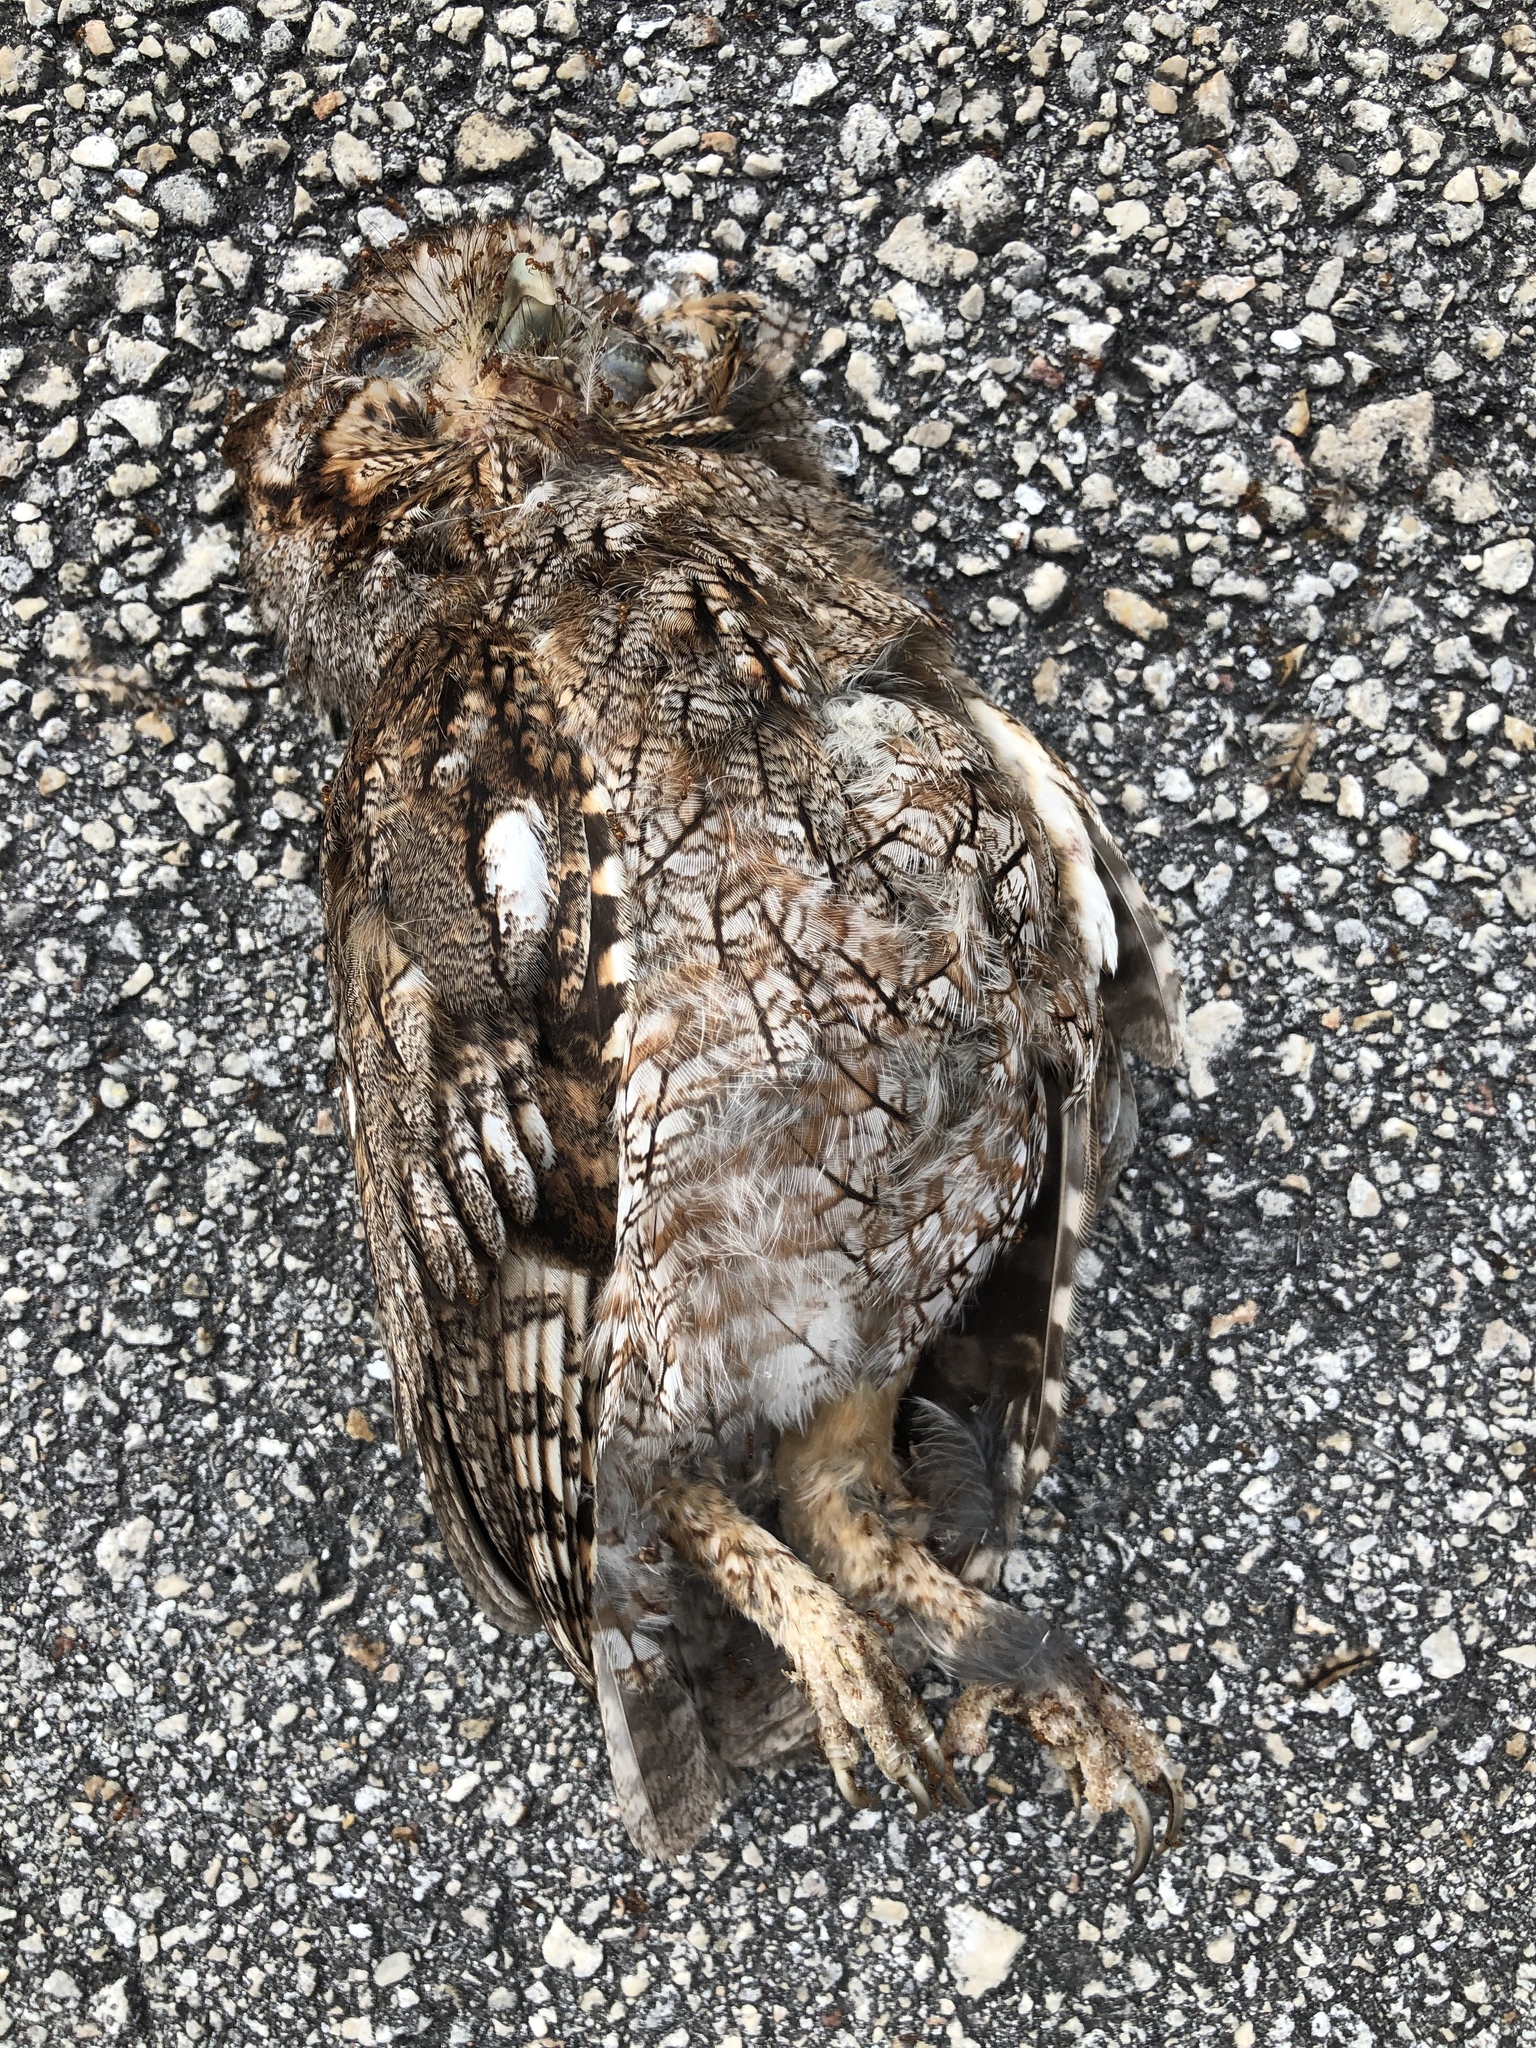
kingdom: Animalia
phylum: Chordata
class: Aves
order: Strigiformes
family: Strigidae
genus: Megascops
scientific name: Megascops asio
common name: Eastern screech-owl
